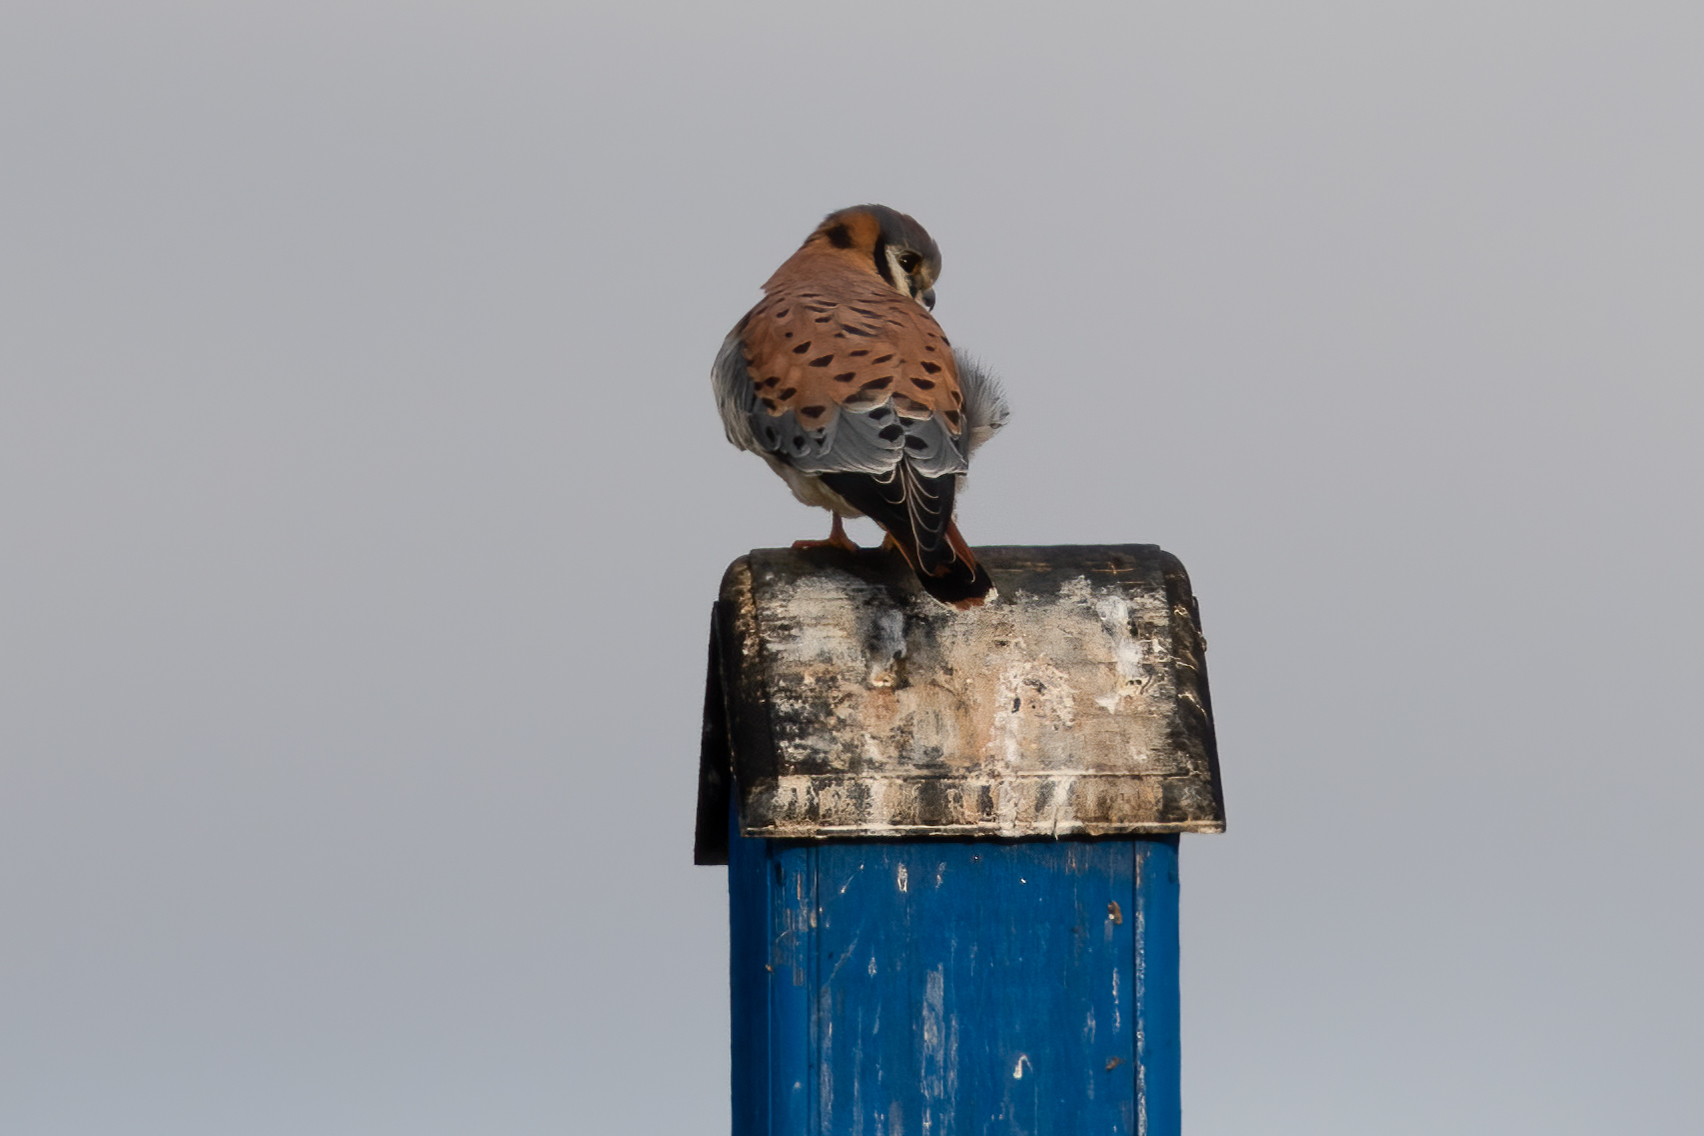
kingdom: Animalia
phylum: Chordata
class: Aves
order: Falconiformes
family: Falconidae
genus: Falco
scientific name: Falco sparverius
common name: American kestrel
